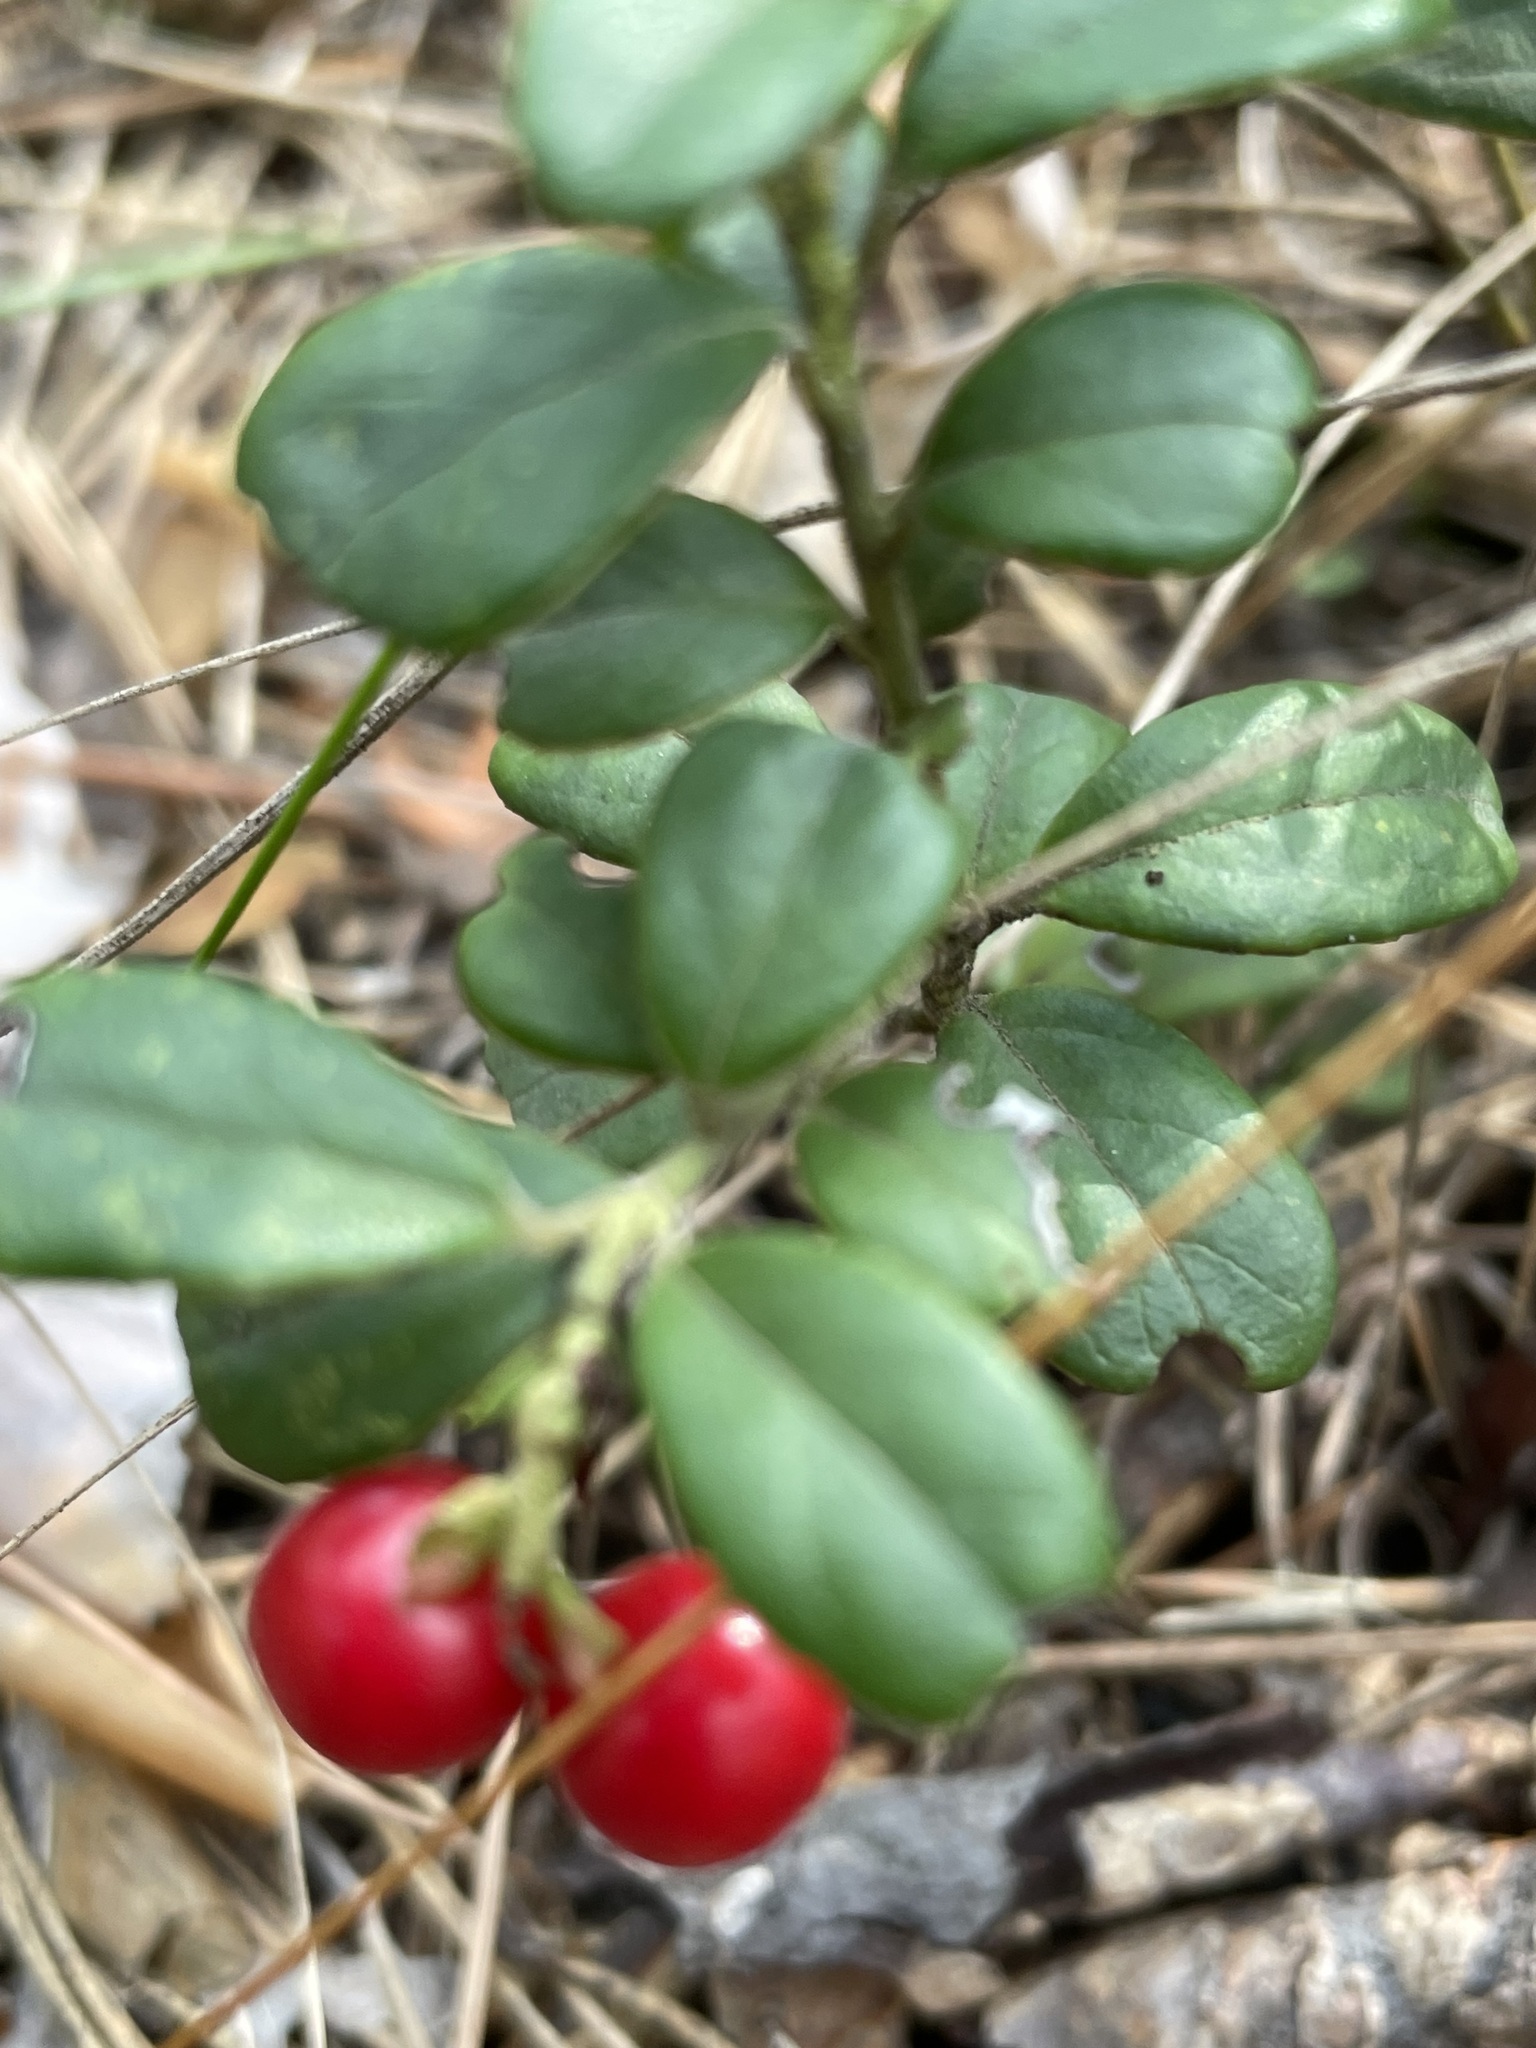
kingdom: Plantae
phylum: Tracheophyta
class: Magnoliopsida
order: Ericales
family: Ericaceae
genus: Vaccinium
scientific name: Vaccinium vitis-idaea
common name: Cowberry
